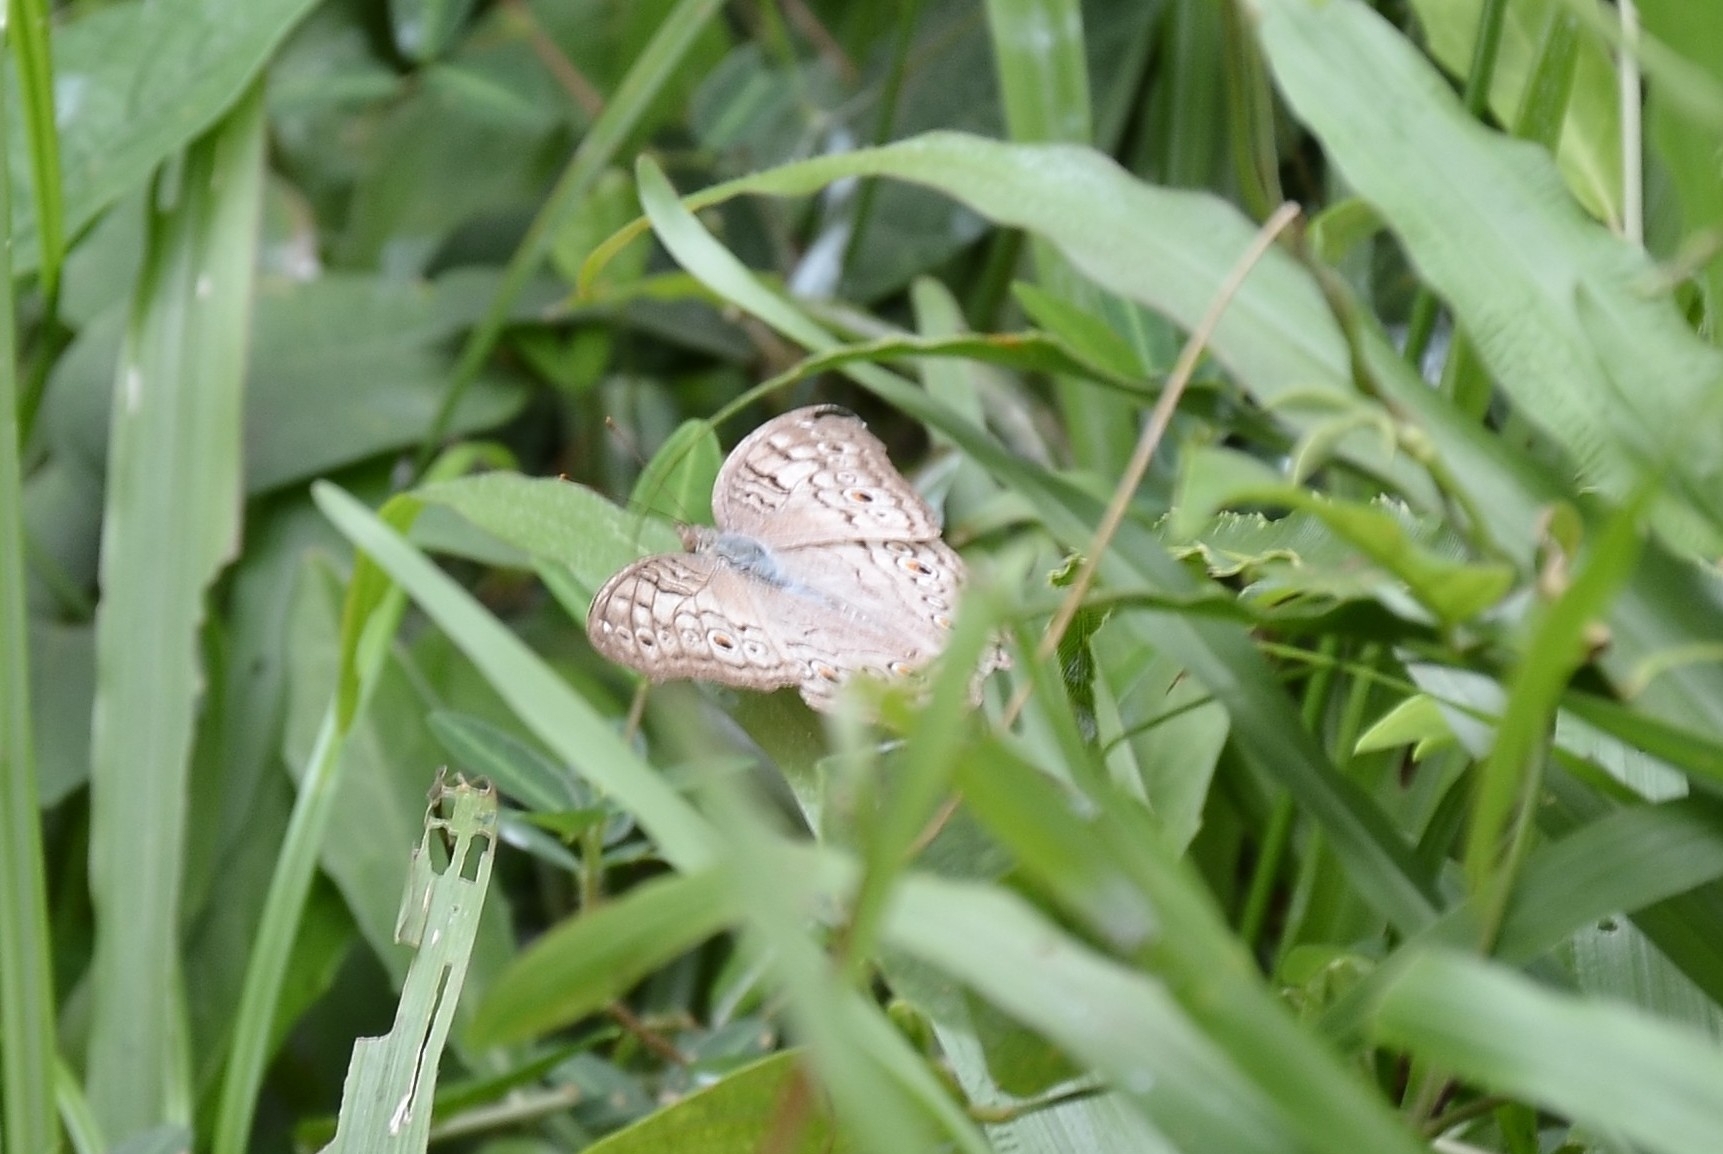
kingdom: Animalia
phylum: Arthropoda
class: Insecta
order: Lepidoptera
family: Nymphalidae
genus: Junonia
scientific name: Junonia atlites
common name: Grey pansy
